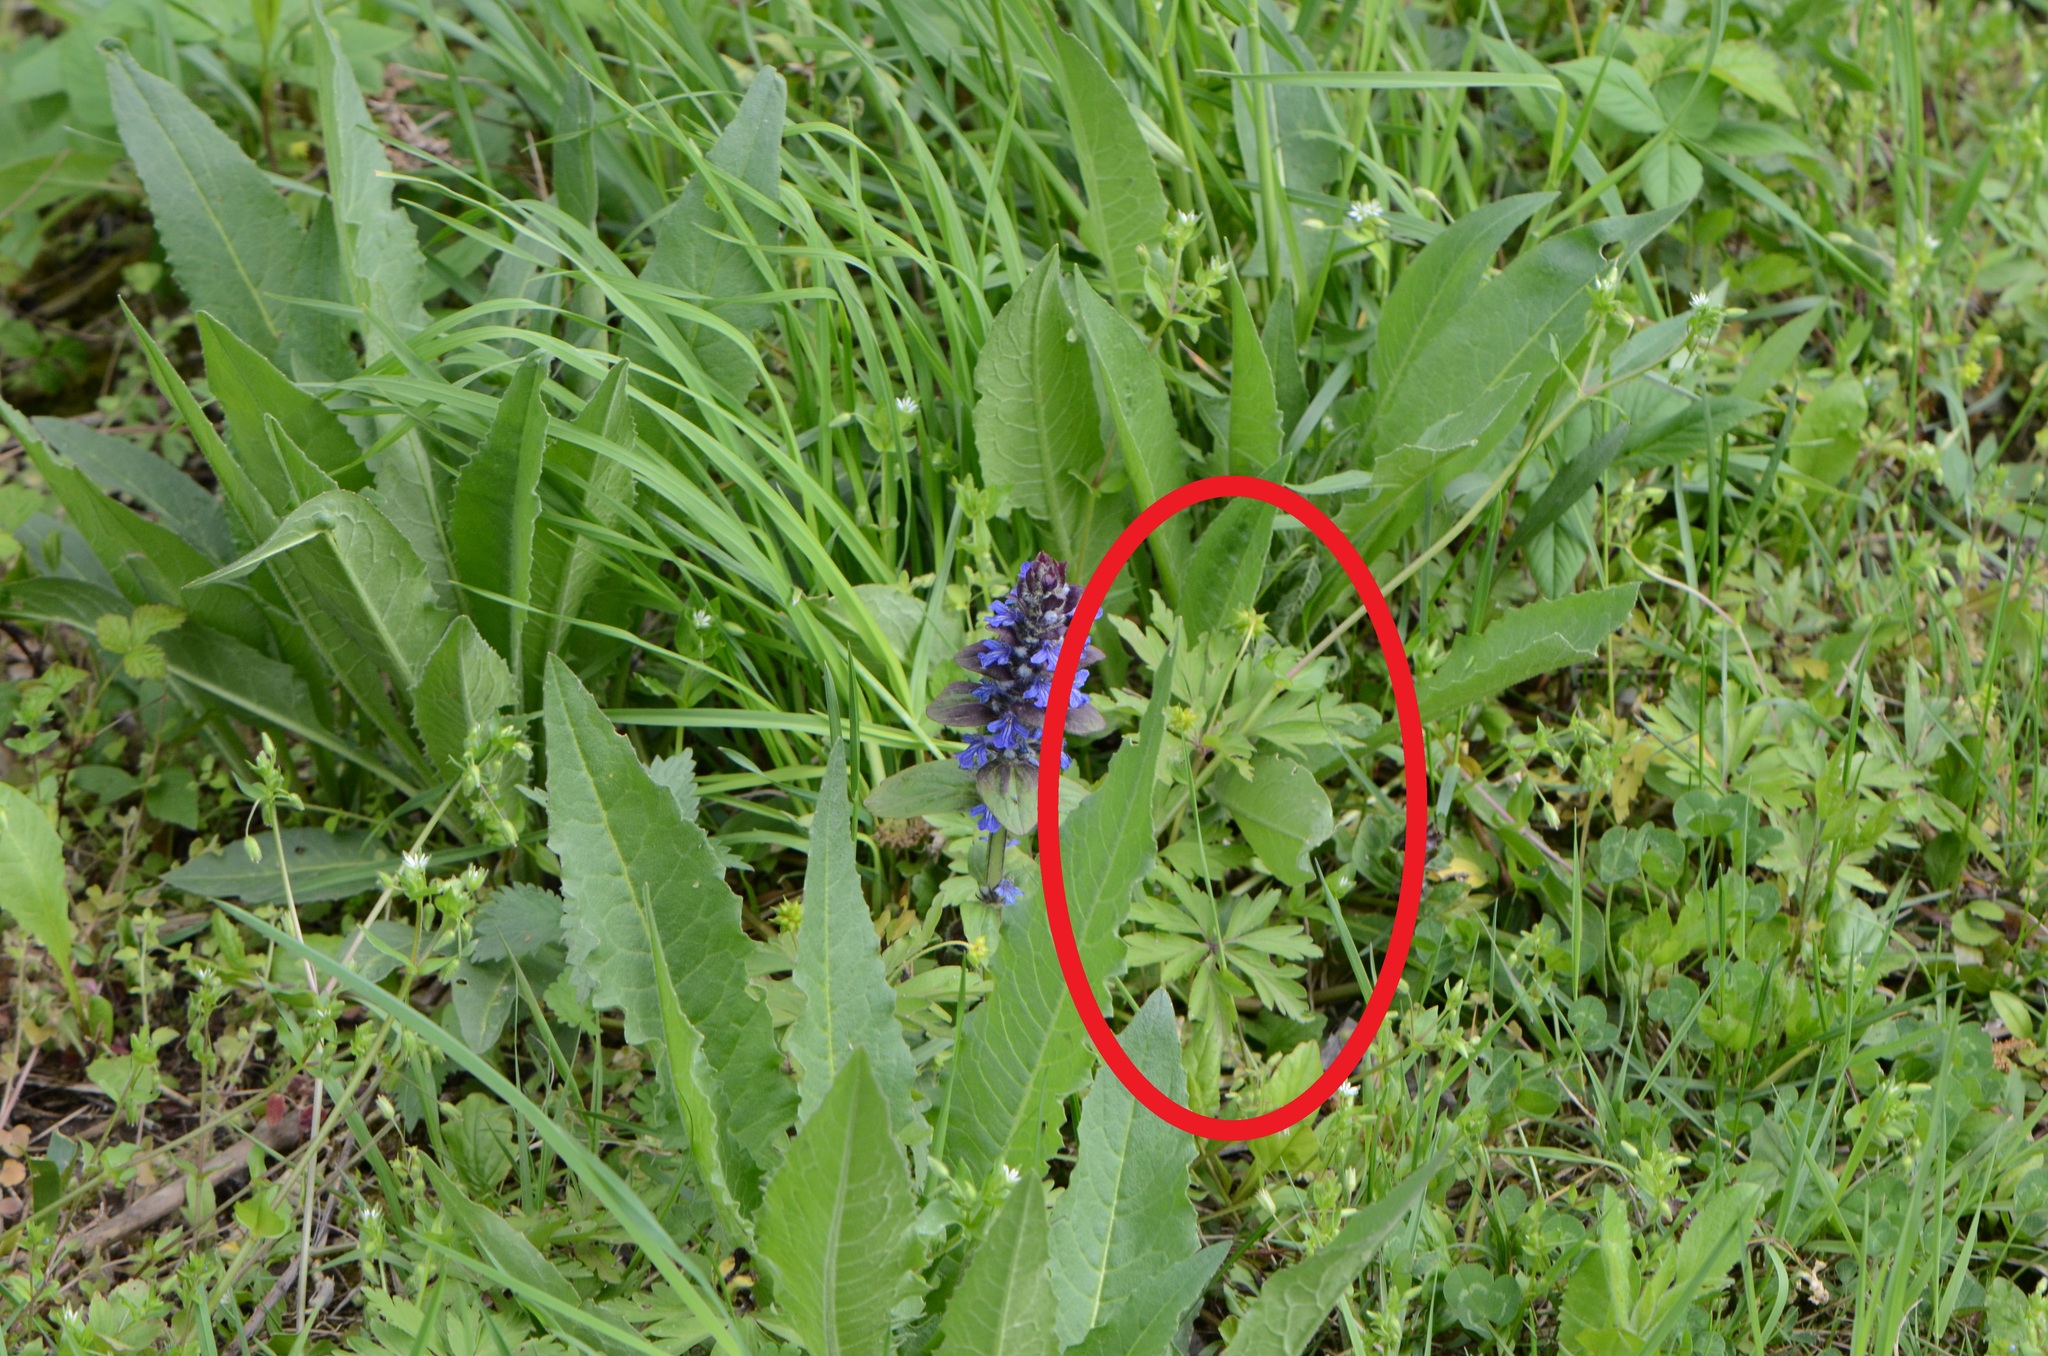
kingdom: Plantae
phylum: Tracheophyta
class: Magnoliopsida
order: Ranunculales
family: Ranunculaceae
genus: Anemone
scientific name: Anemone ranunculoides
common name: Yellow anemone
